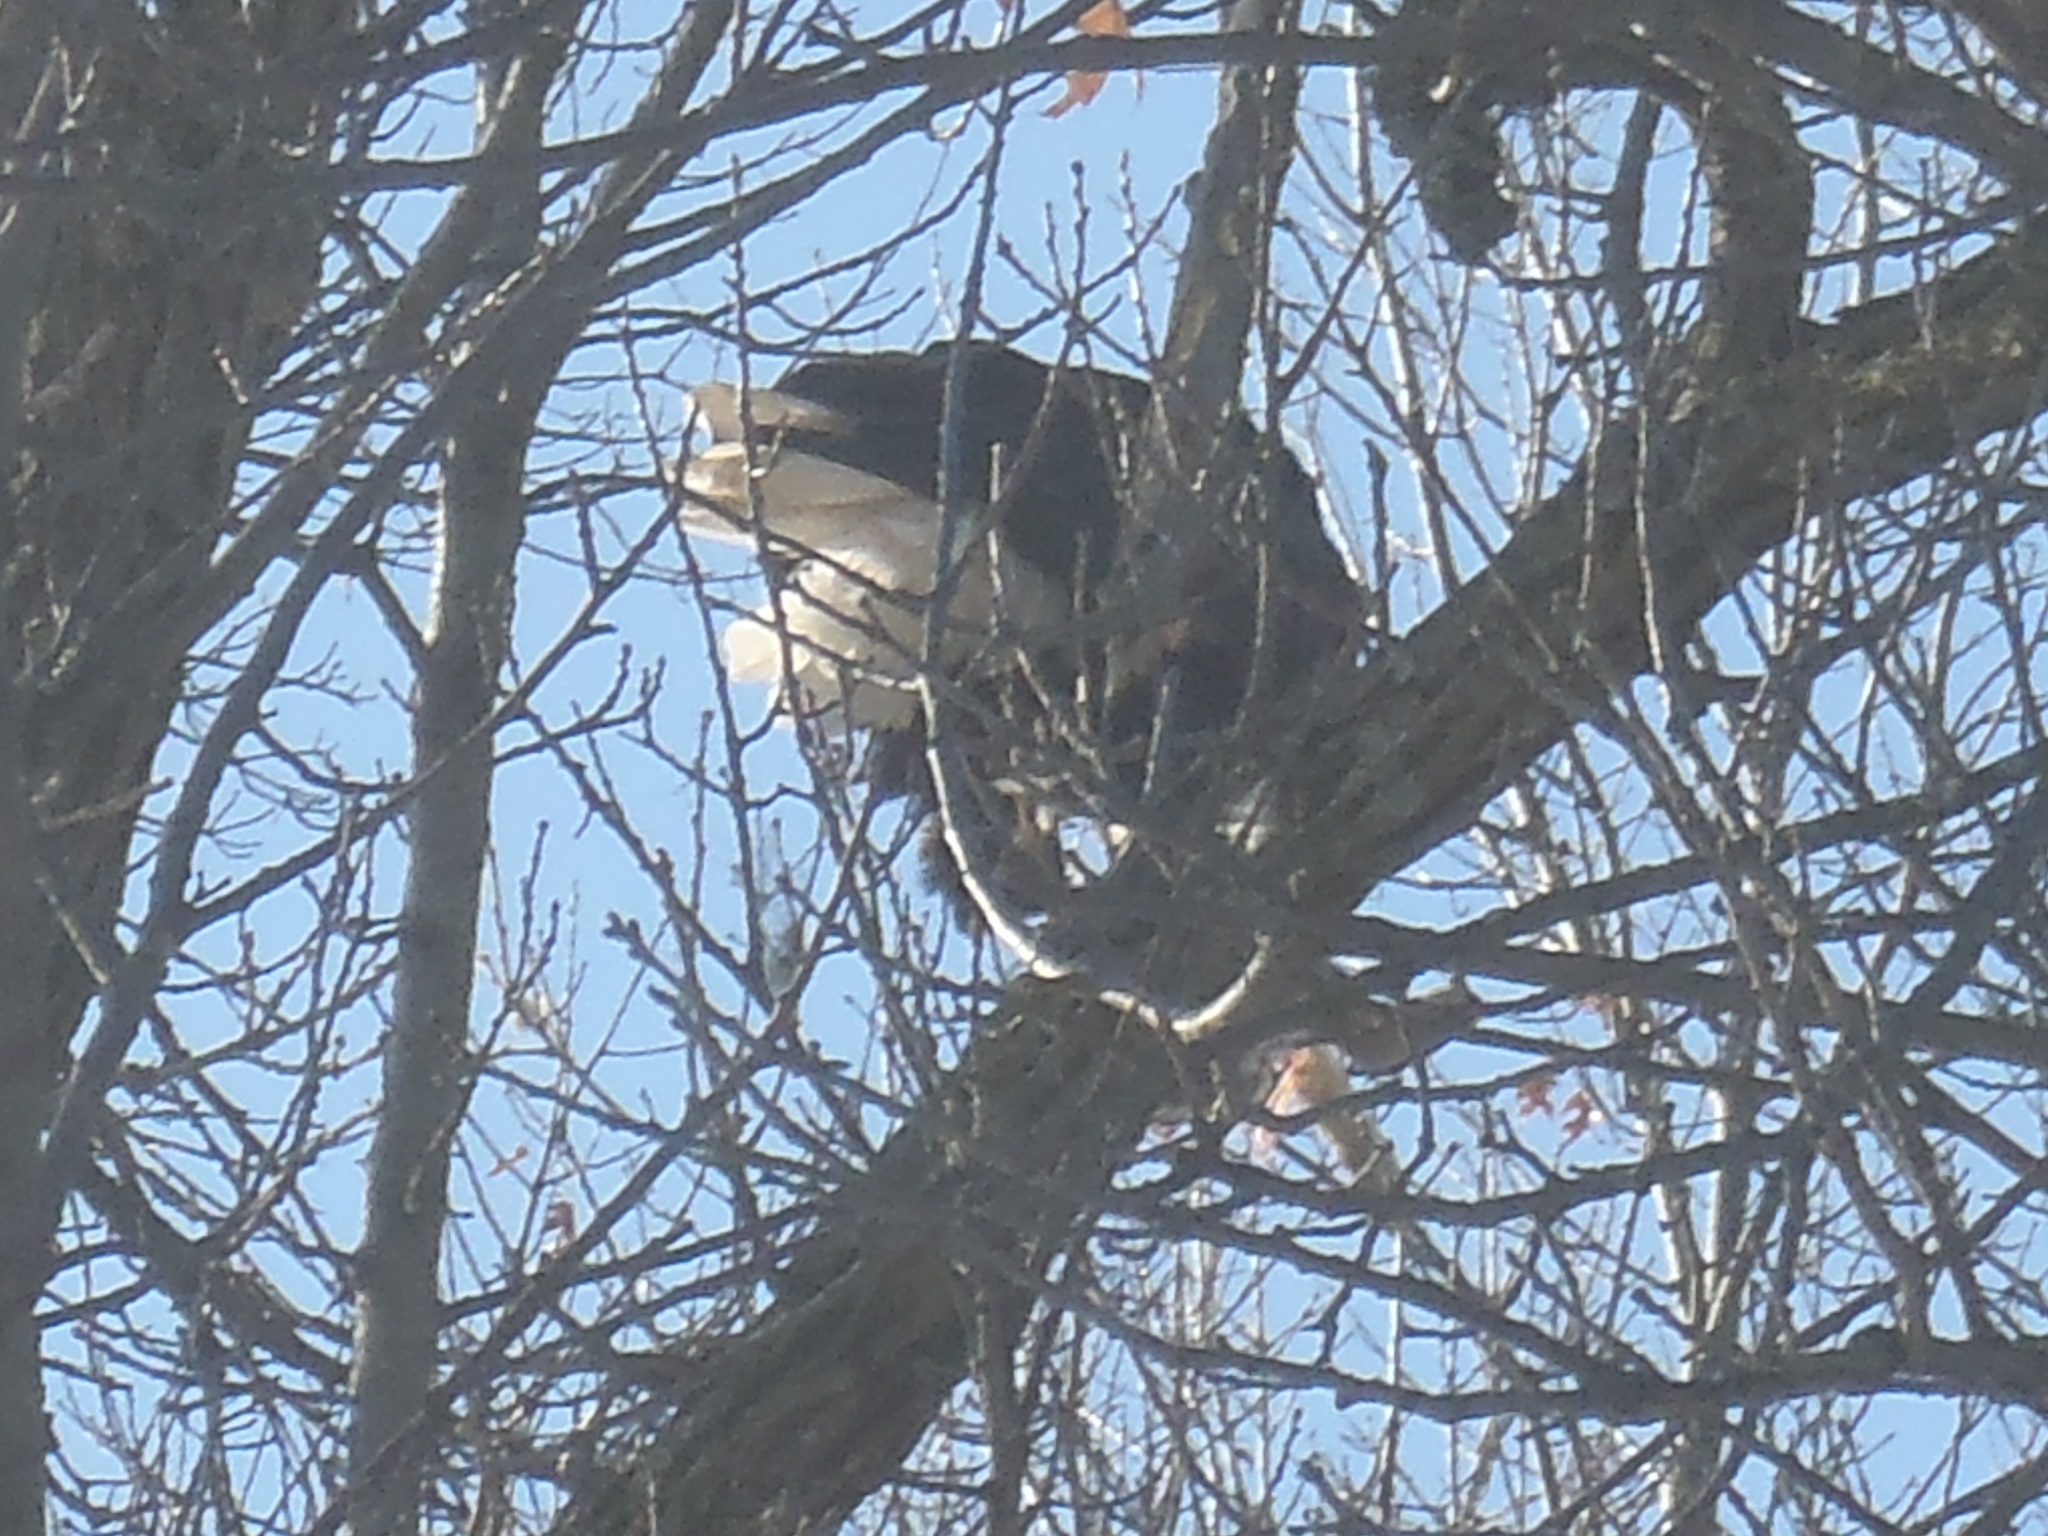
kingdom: Animalia
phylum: Chordata
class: Aves
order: Accipitriformes
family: Accipitridae
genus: Haliaeetus
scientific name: Haliaeetus leucocephalus
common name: Bald eagle
